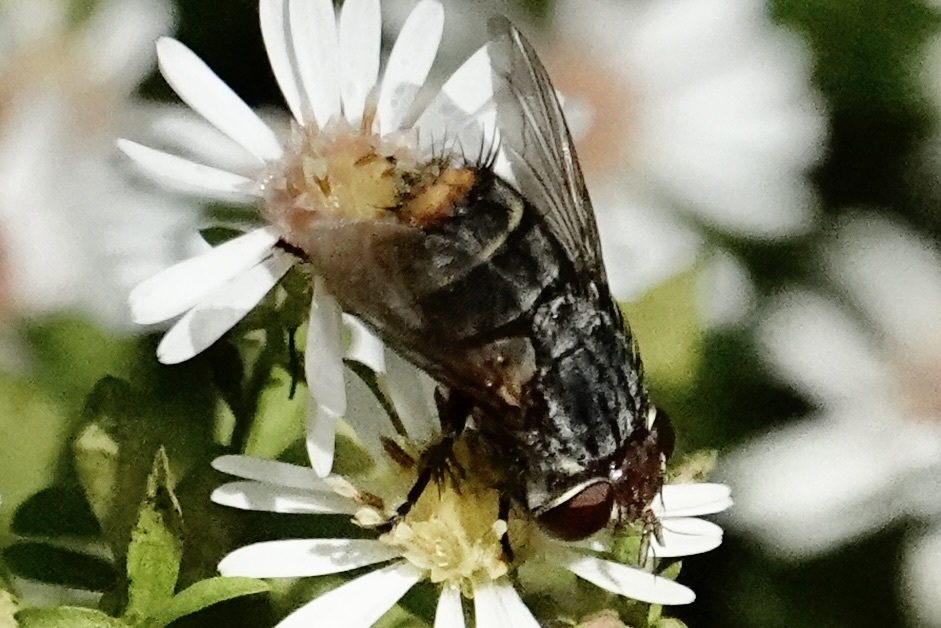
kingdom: Animalia
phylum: Arthropoda
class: Insecta
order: Diptera
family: Tachinidae
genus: Belvosia
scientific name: Belvosia unifasciata
